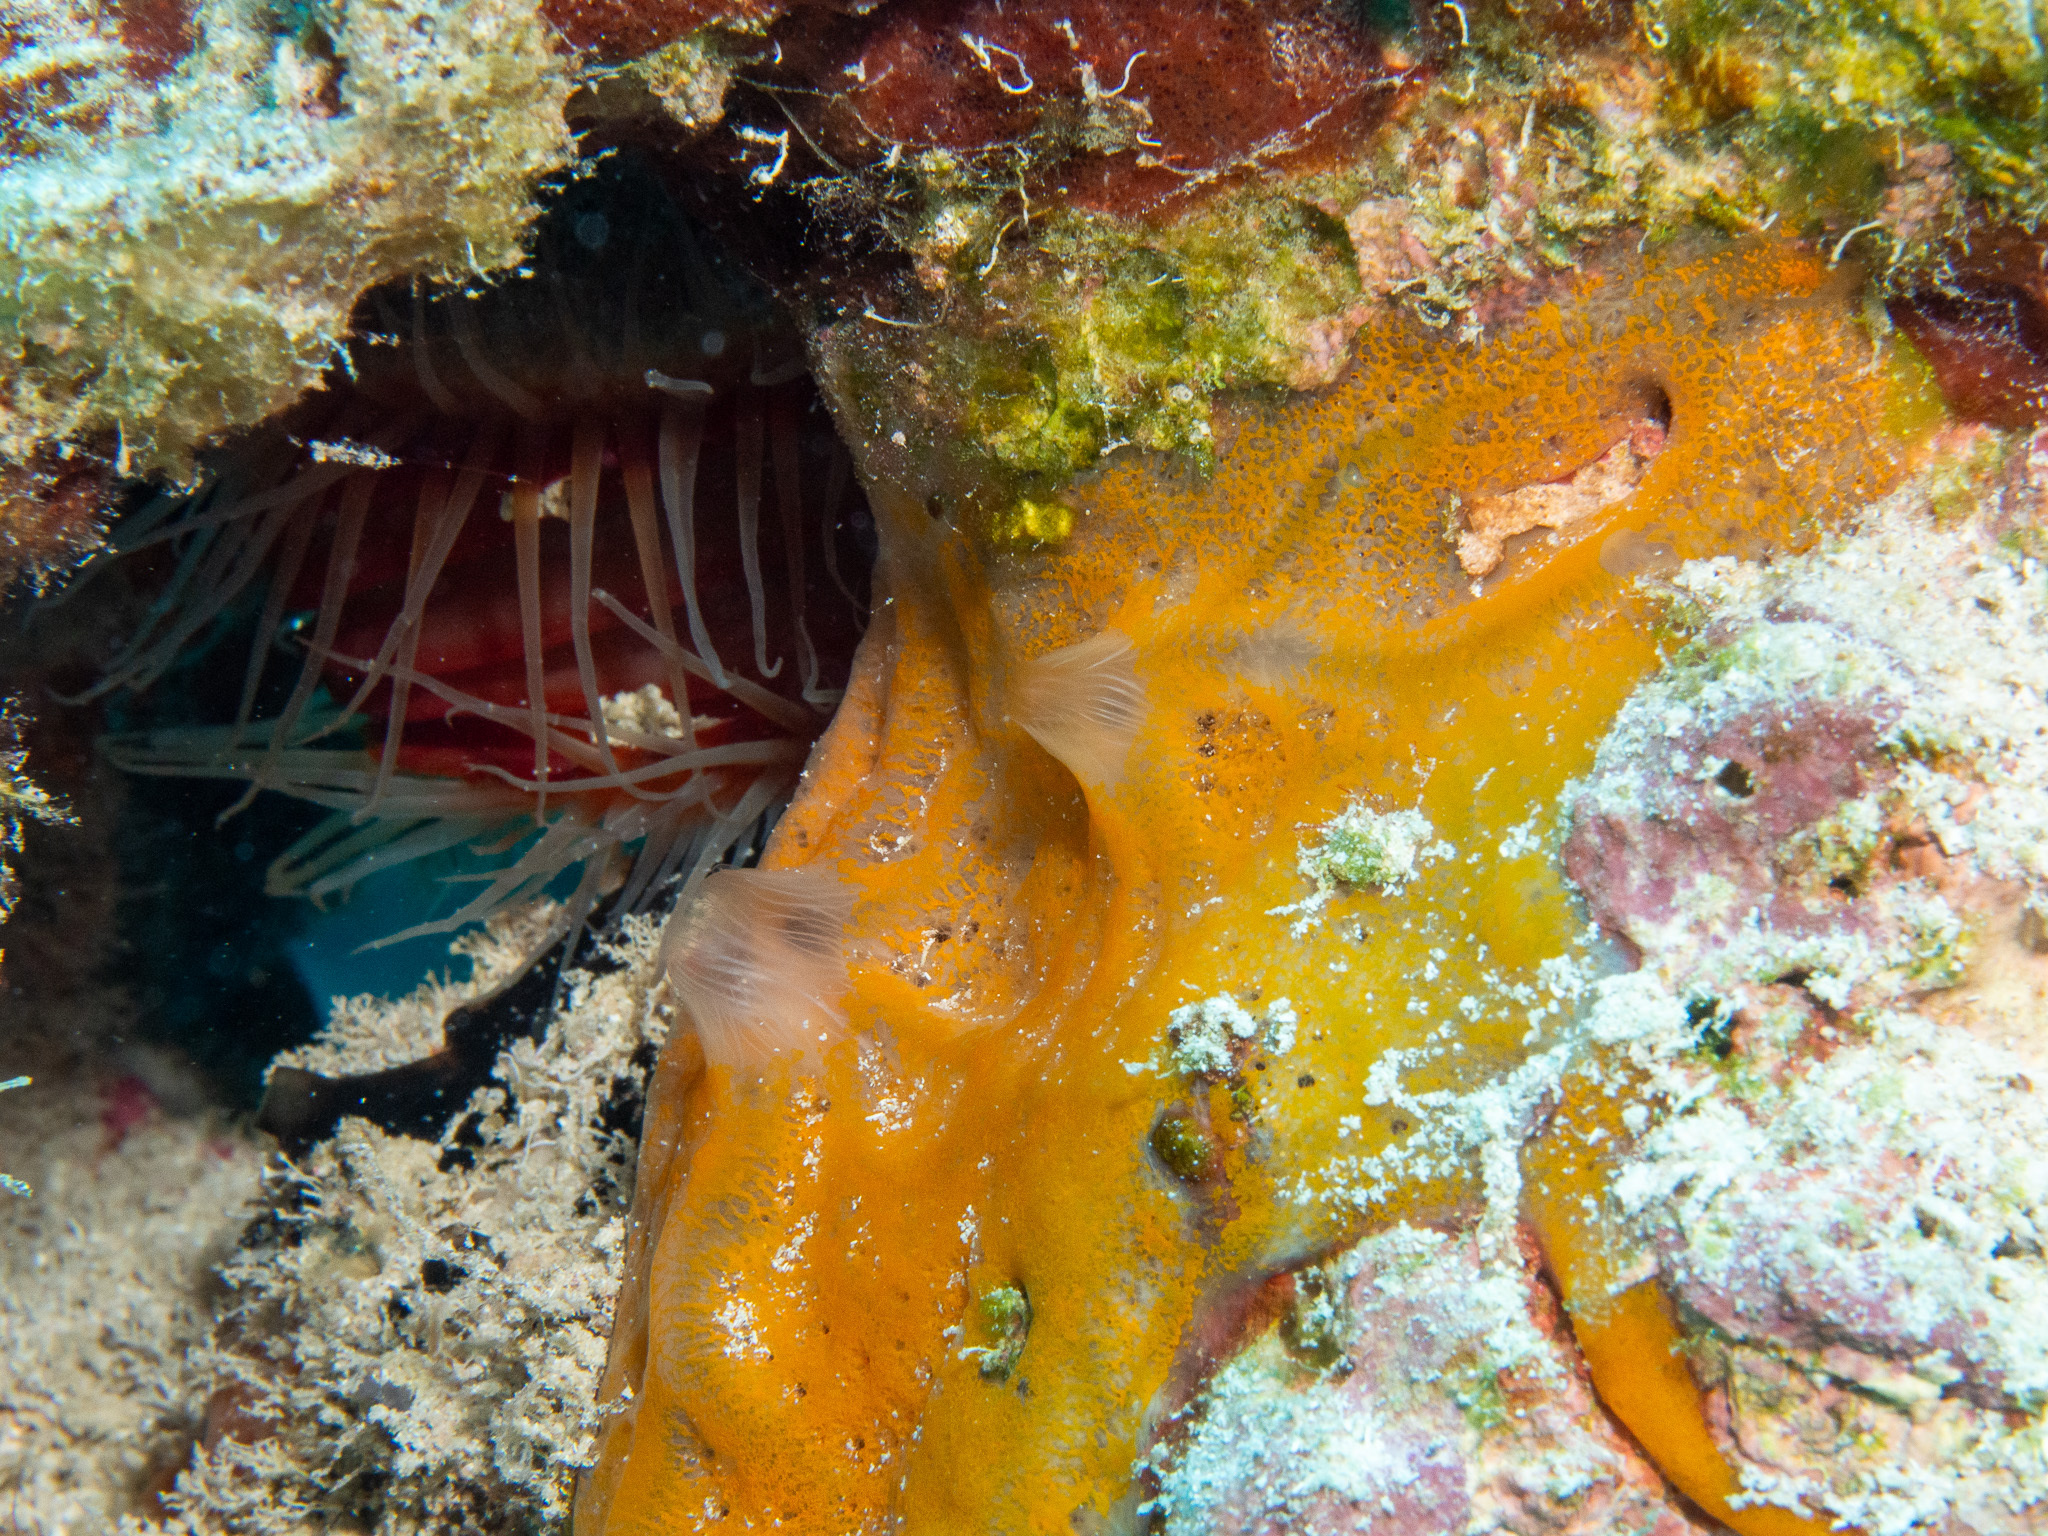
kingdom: Animalia
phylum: Porifera
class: Demospongiae
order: Poecilosclerida
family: Mycalidae
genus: Mycale
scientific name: Mycale laevis
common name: Orange icing sponge
